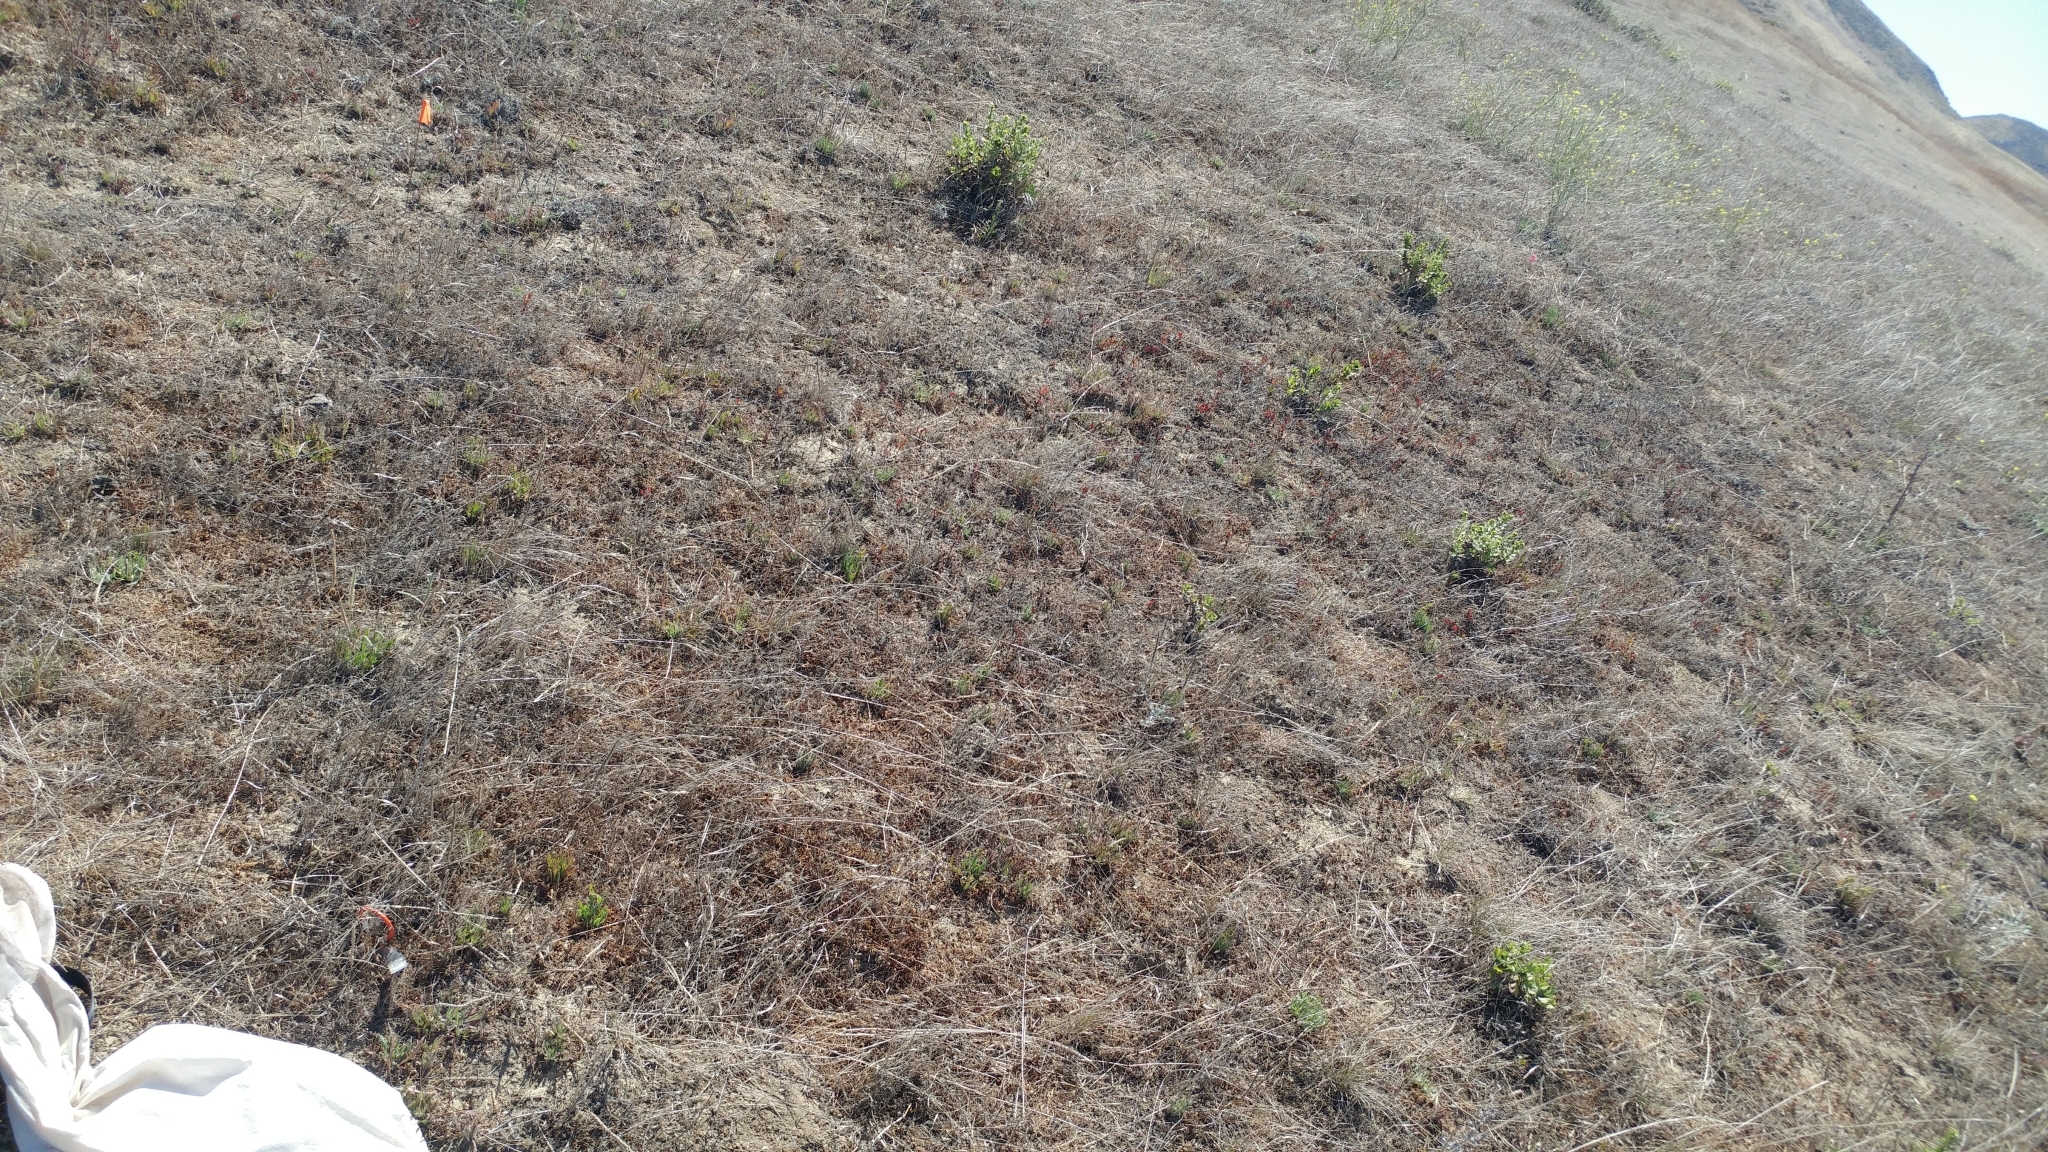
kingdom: Plantae
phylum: Tracheophyta
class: Magnoliopsida
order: Asterales
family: Asteraceae
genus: Deinandra
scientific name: Deinandra increscens
